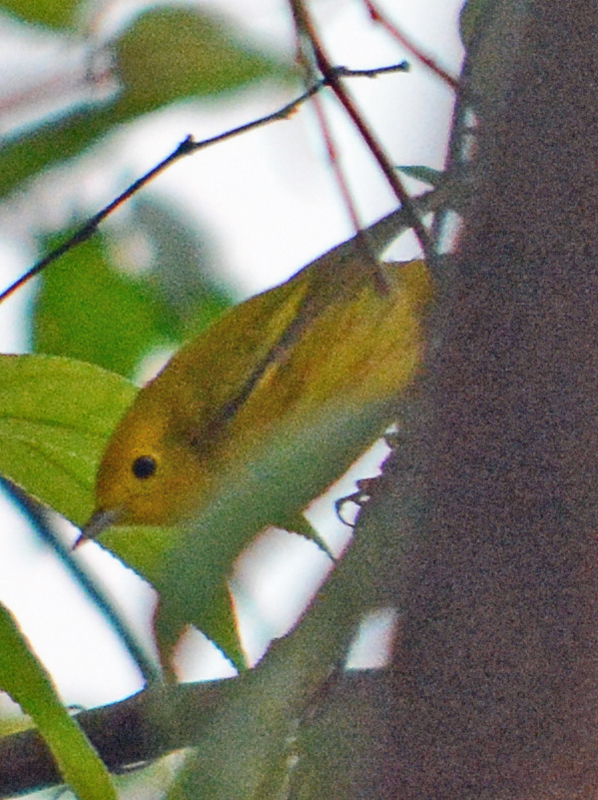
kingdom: Animalia
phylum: Chordata
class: Aves
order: Passeriformes
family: Parulidae
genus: Setophaga
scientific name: Setophaga petechia
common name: Yellow warbler
